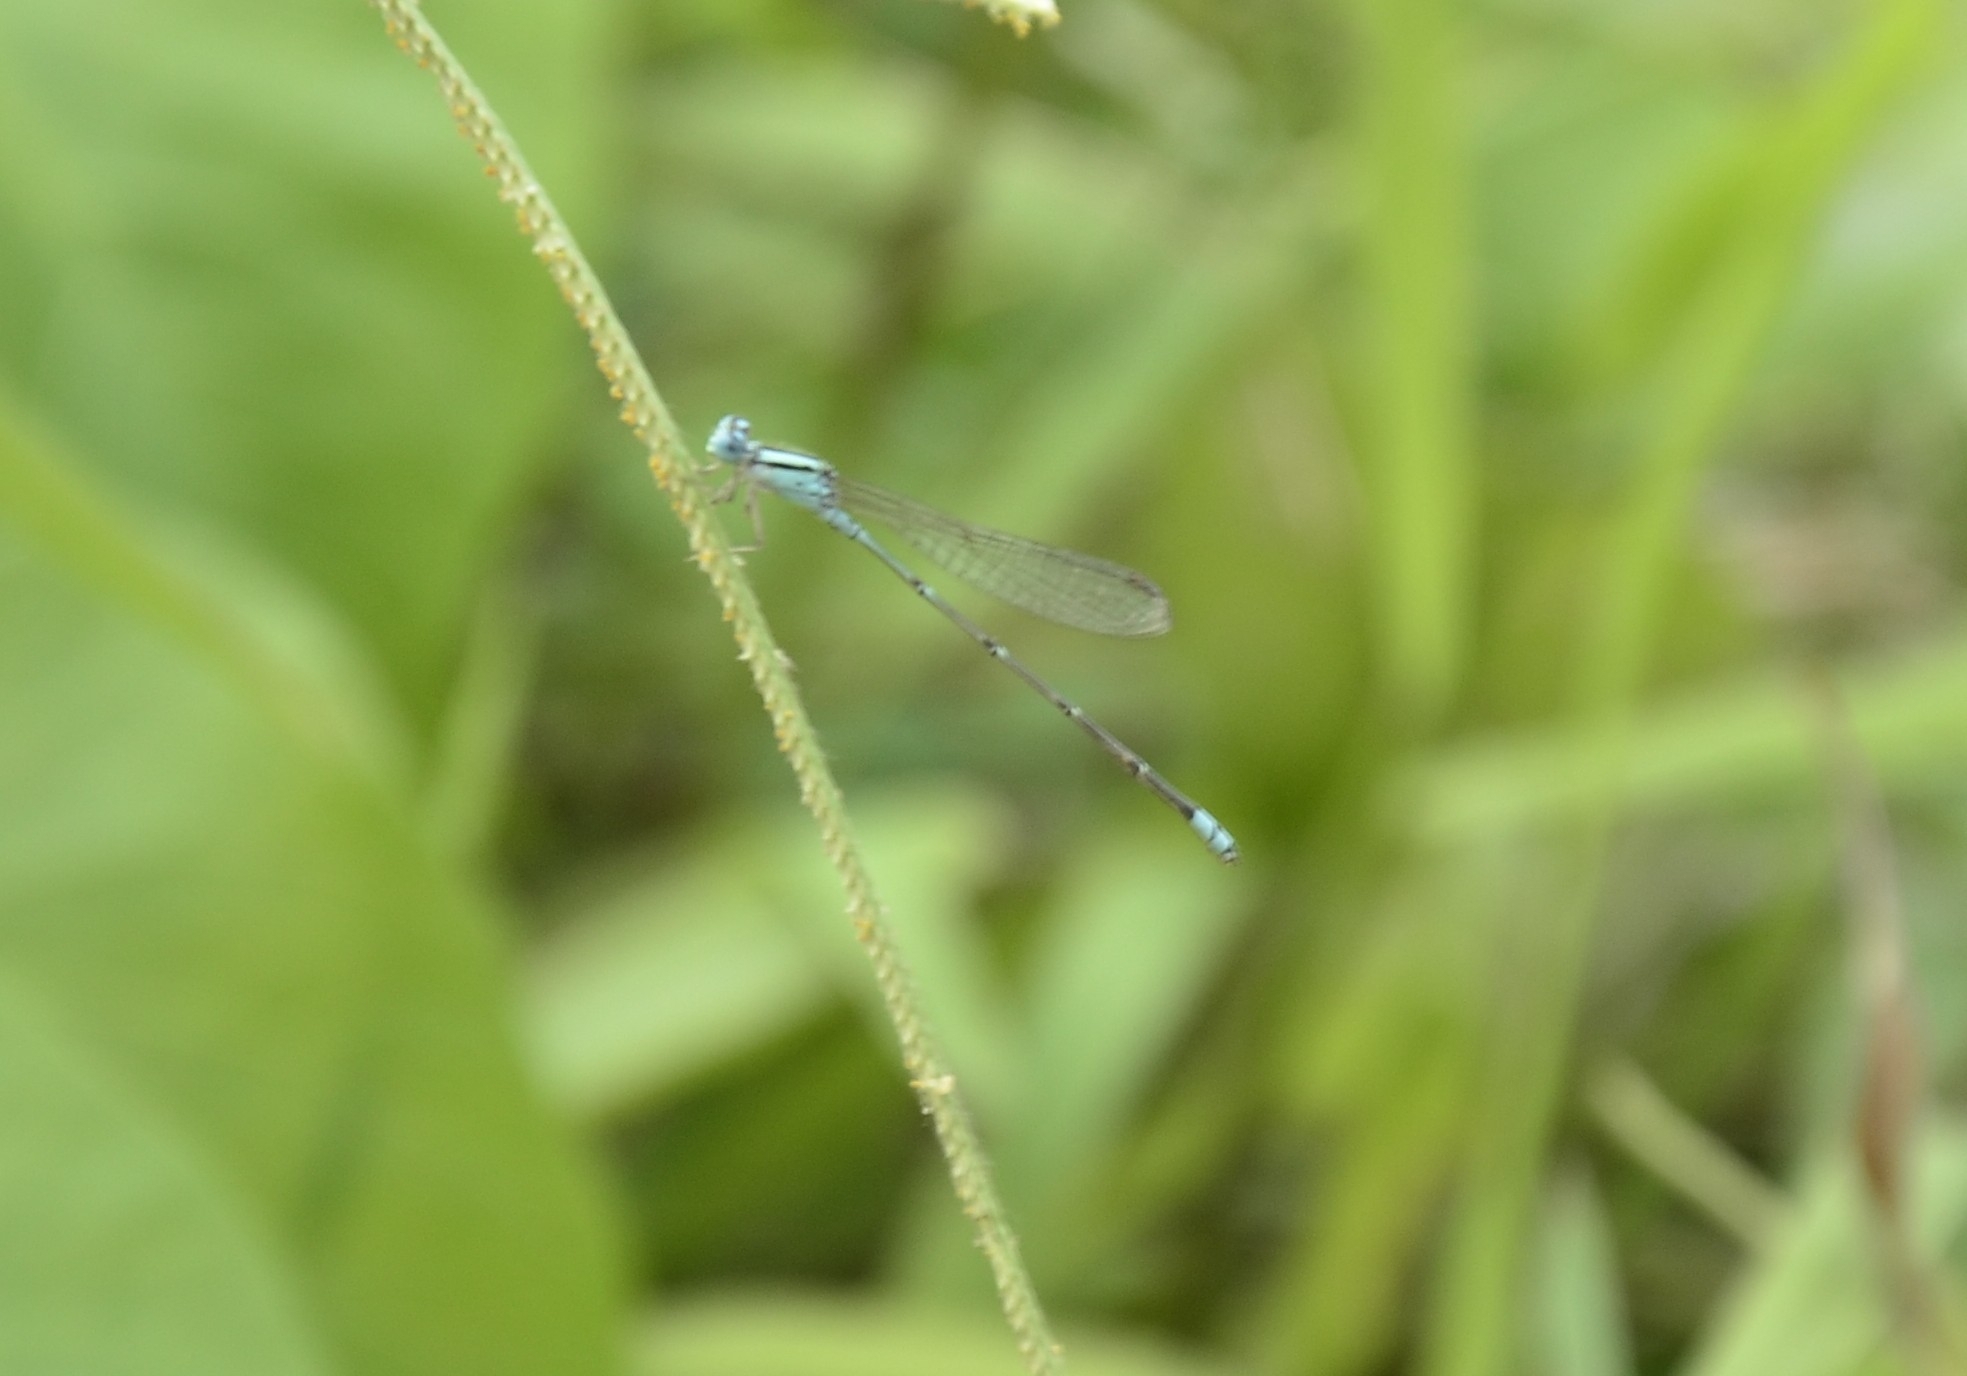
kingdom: Animalia
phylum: Arthropoda
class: Insecta
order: Odonata
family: Coenagrionidae
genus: Pseudagrion
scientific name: Pseudagrion microcephalum
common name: Blue riverdamsel
